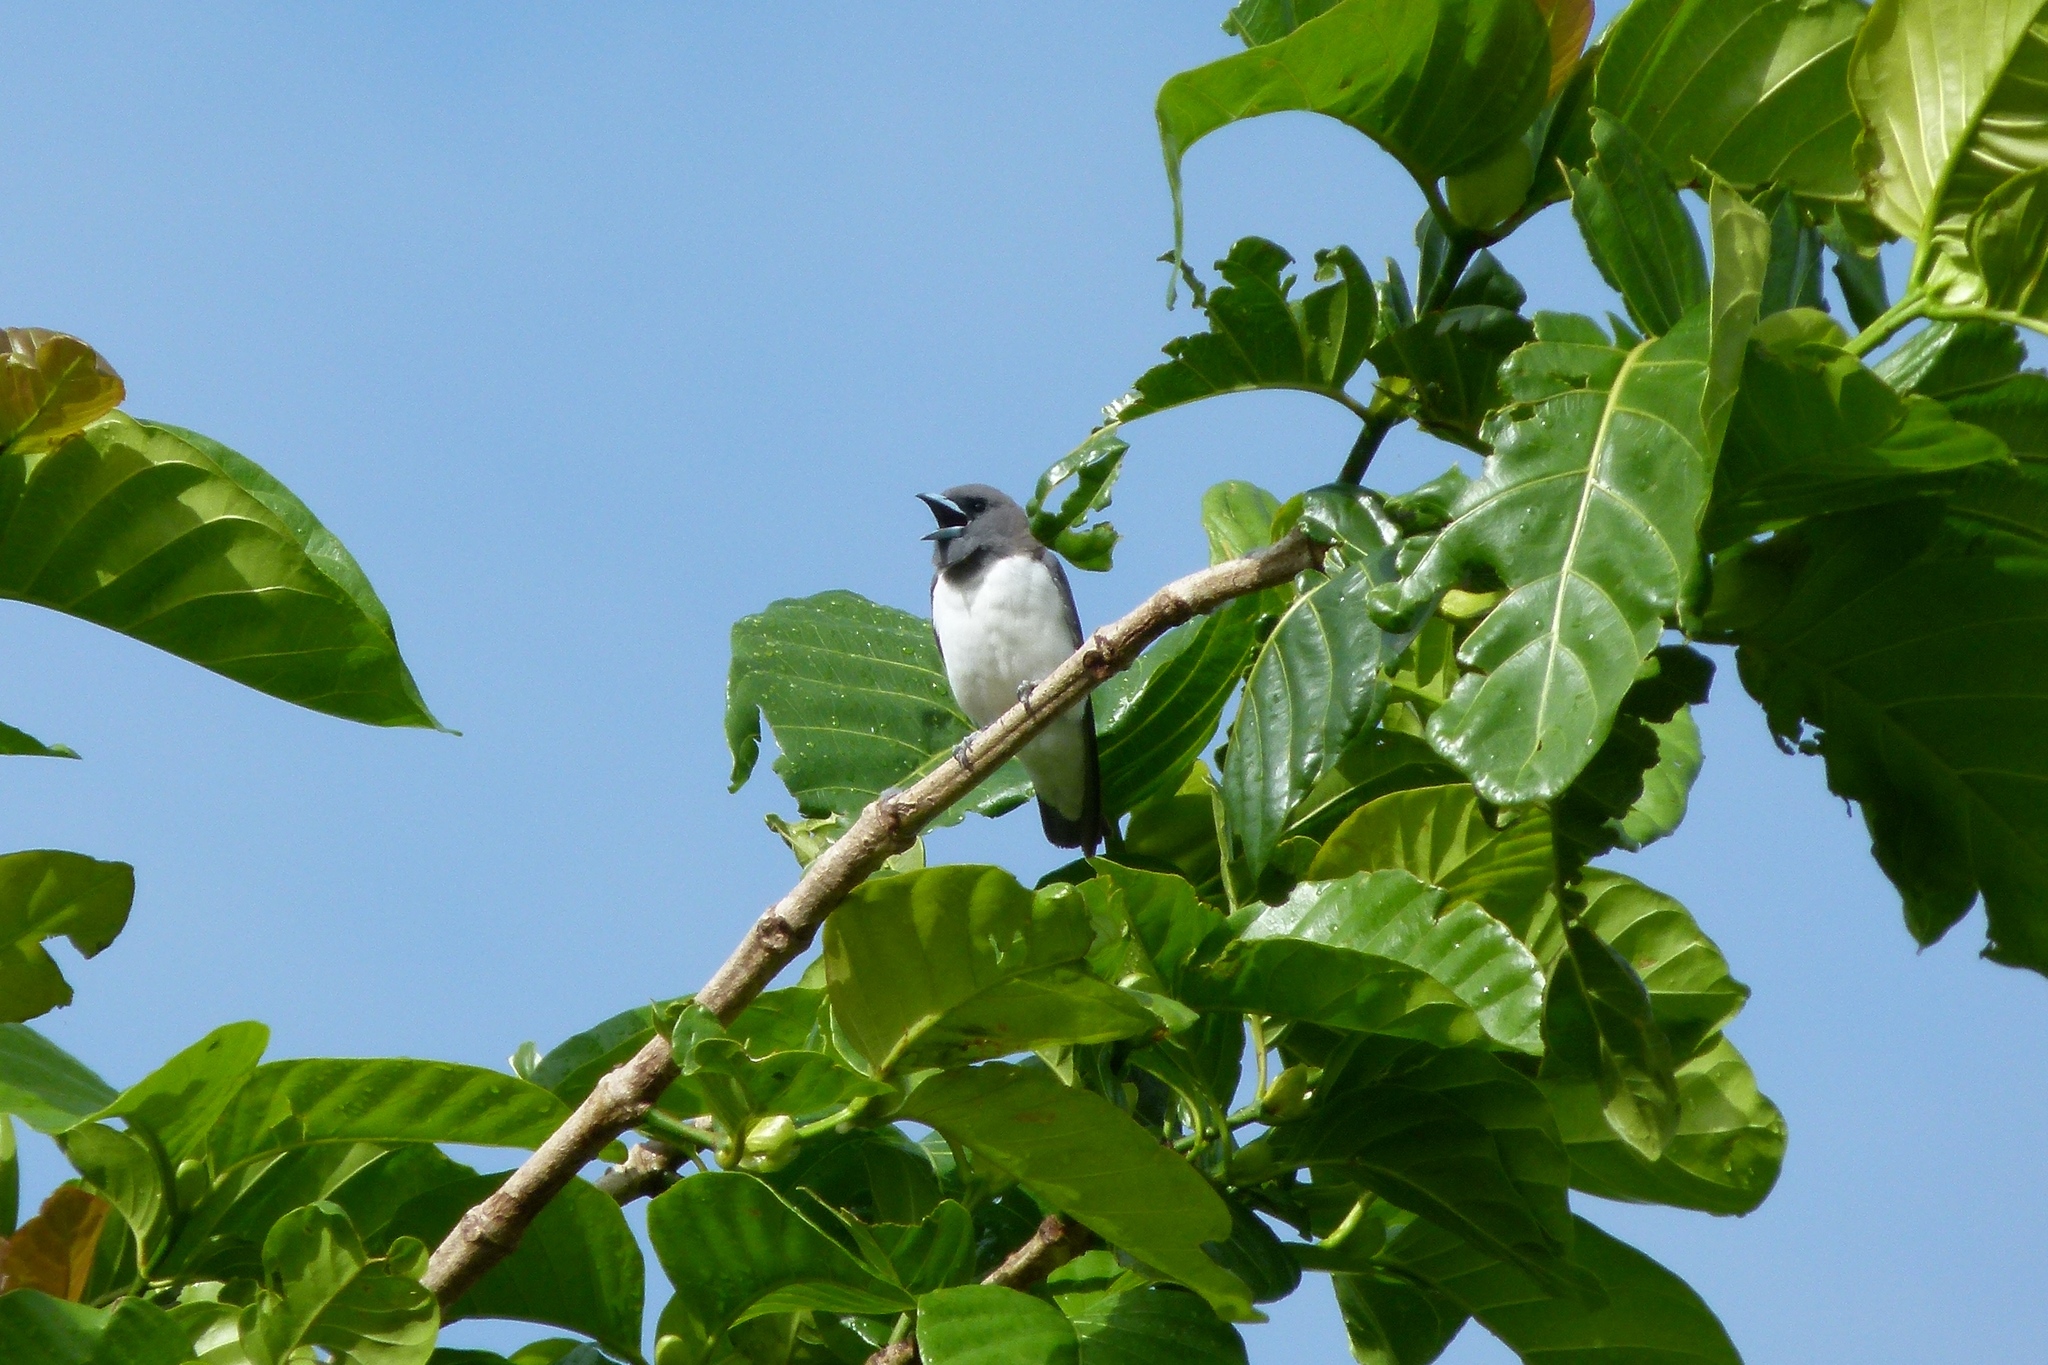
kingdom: Animalia
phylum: Chordata
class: Aves
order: Passeriformes
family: Artamidae
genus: Artamus
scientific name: Artamus leucoryn
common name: White-breasted woodswallow
